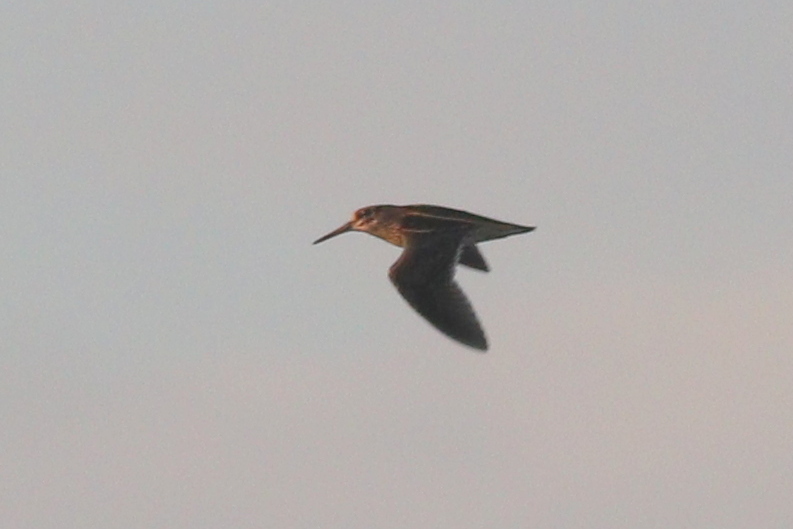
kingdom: Animalia
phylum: Chordata
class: Aves
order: Charadriiformes
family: Scolopacidae
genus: Lymnocryptes
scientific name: Lymnocryptes minimus
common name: Jack snipe
